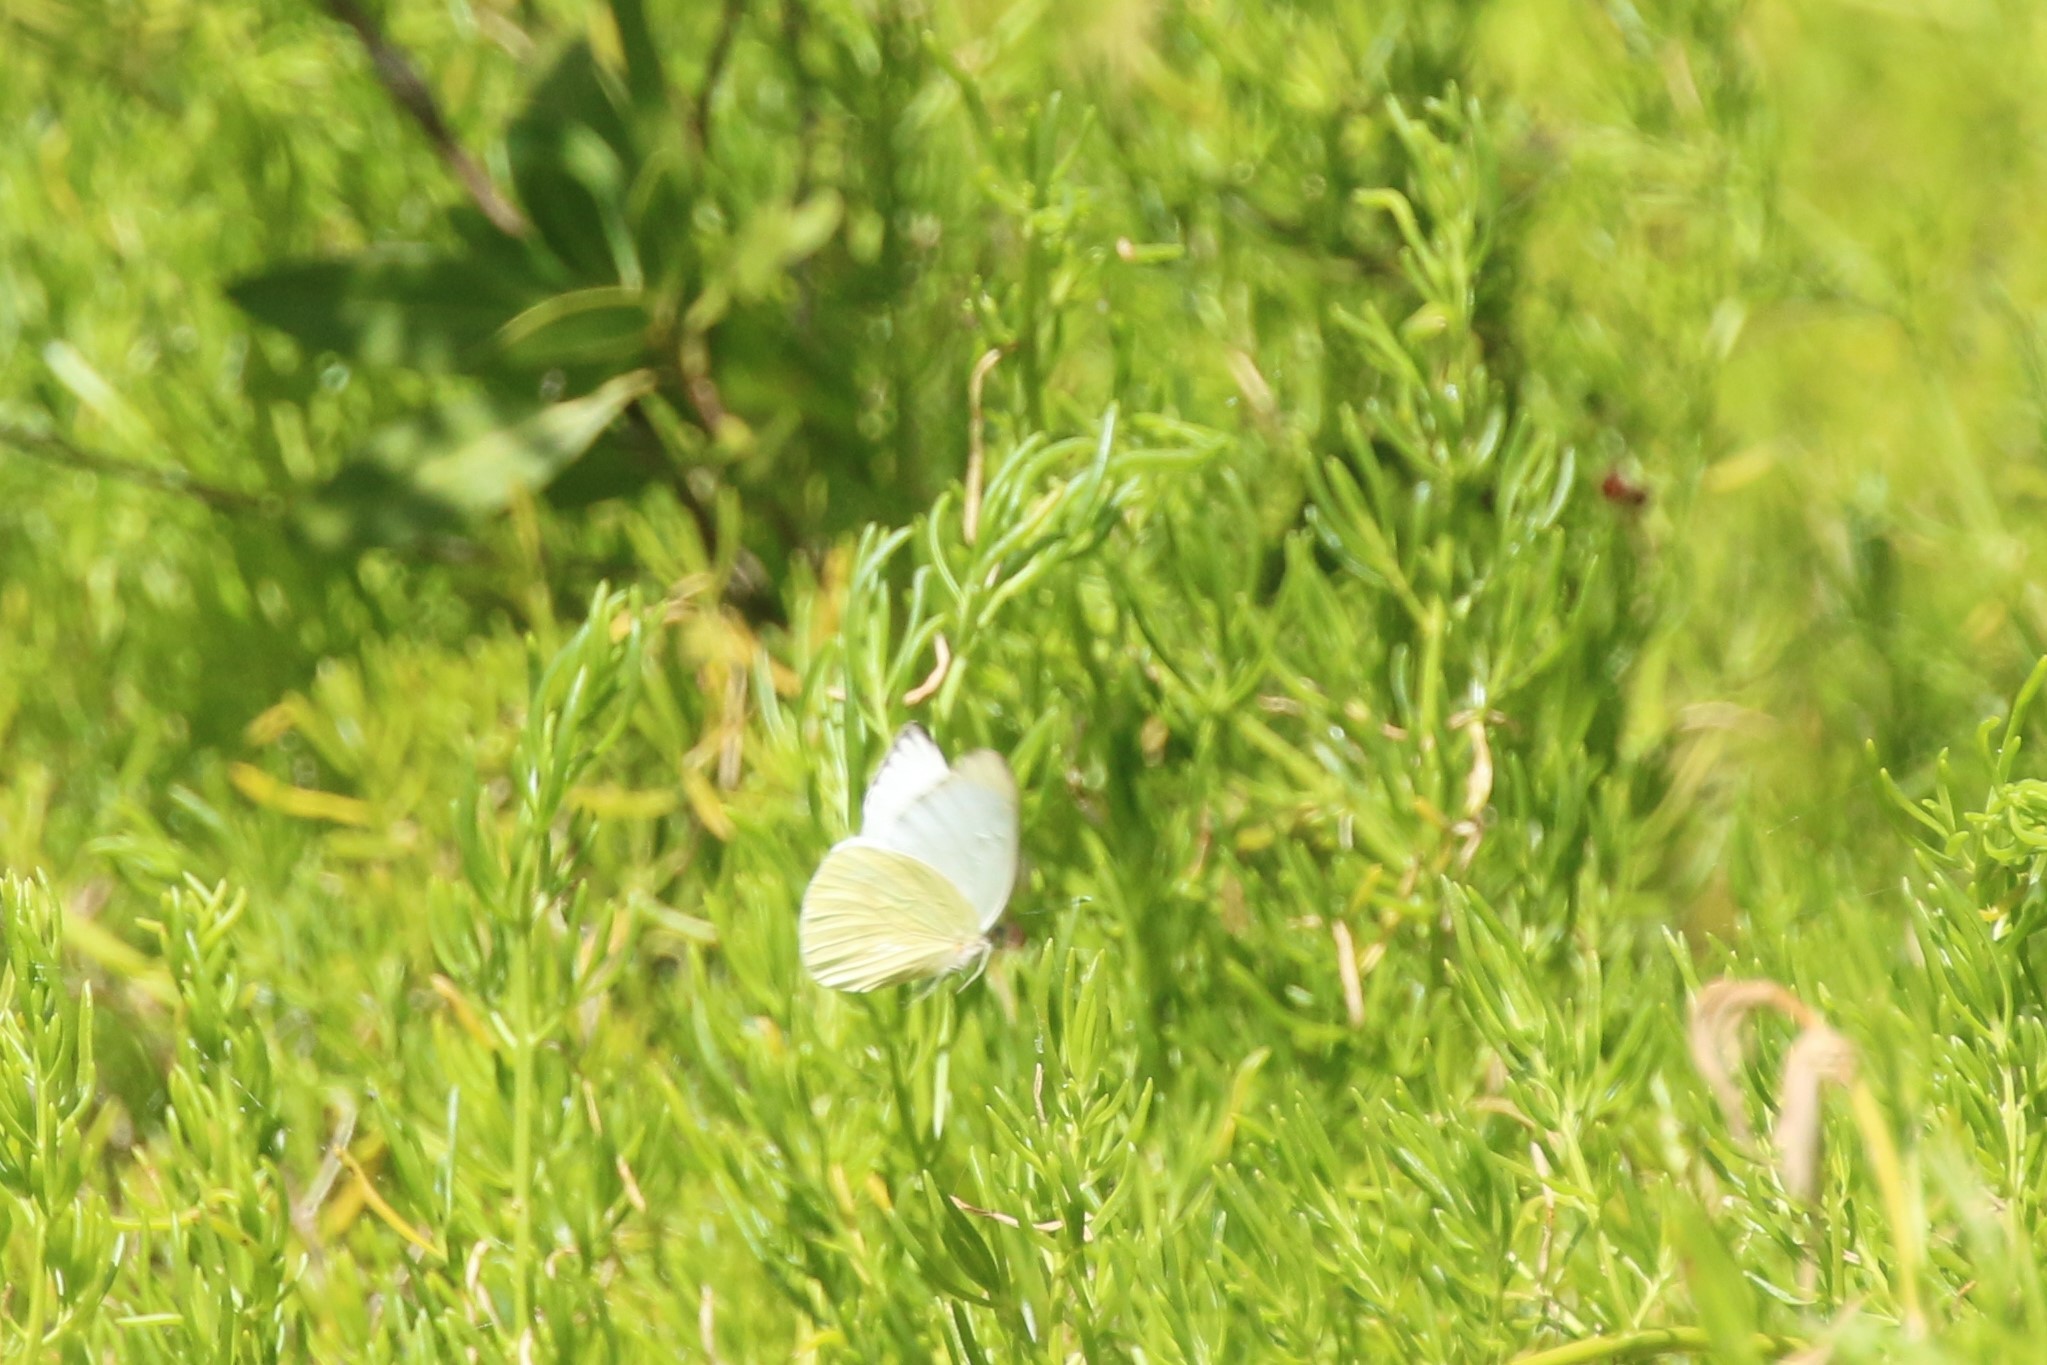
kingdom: Animalia
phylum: Arthropoda
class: Insecta
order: Lepidoptera
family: Pieridae
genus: Ascia
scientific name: Ascia monuste
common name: Great southern white
